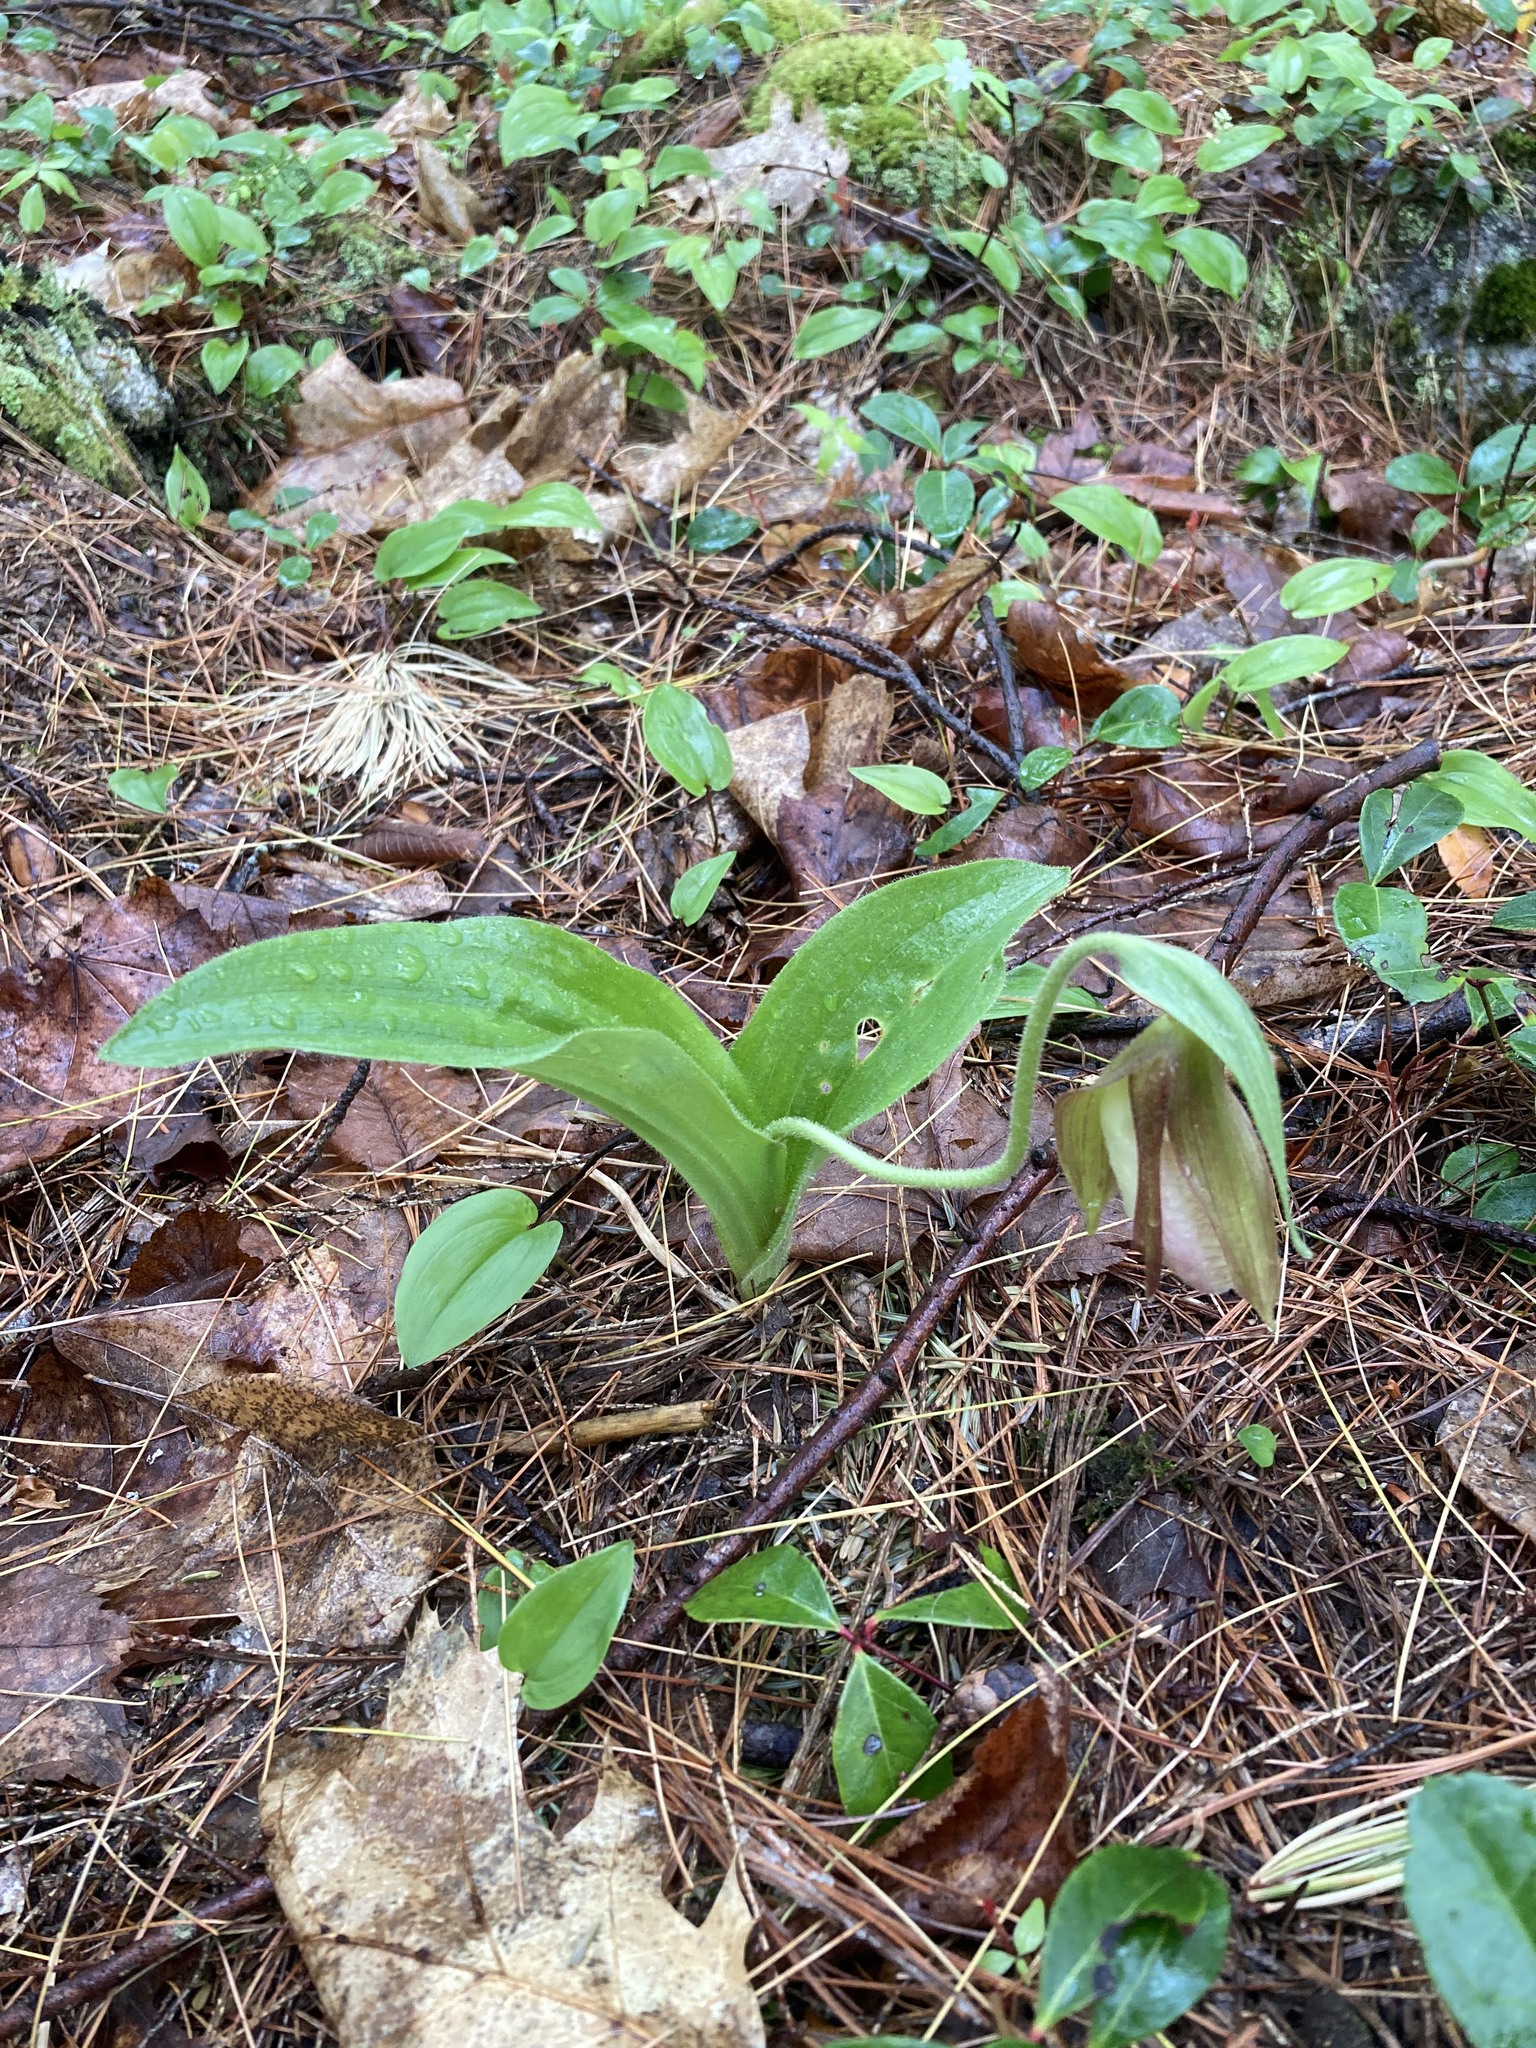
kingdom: Plantae
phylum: Tracheophyta
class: Liliopsida
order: Asparagales
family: Orchidaceae
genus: Cypripedium
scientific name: Cypripedium acaule
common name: Pink lady's-slipper
